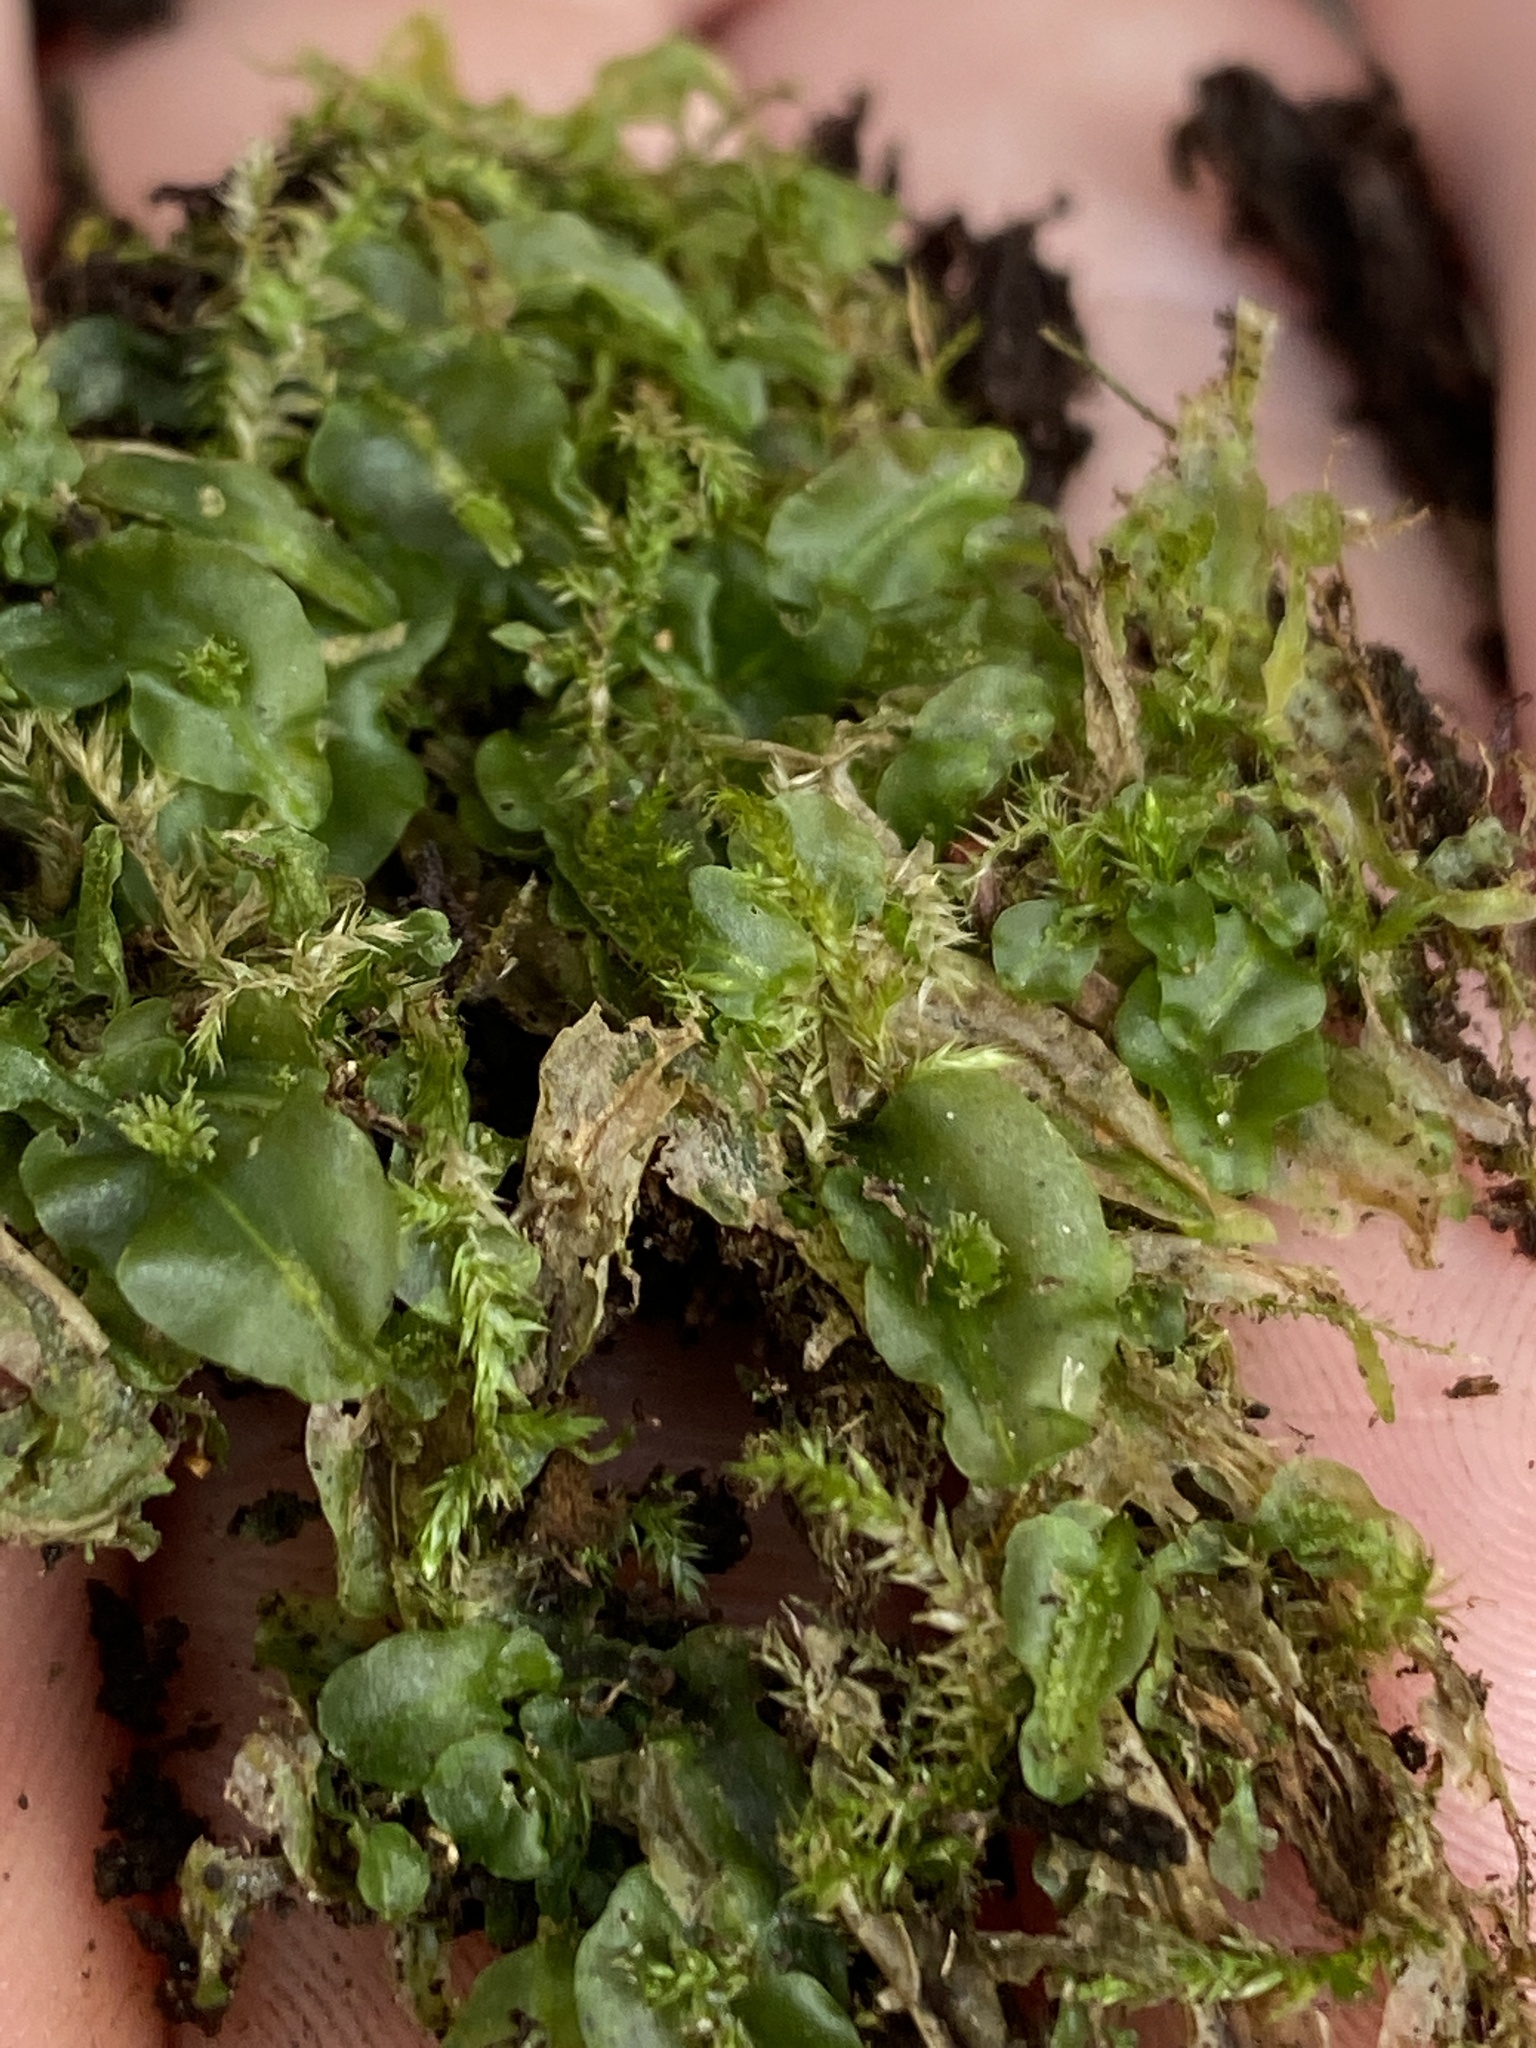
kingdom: Plantae
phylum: Marchantiophyta
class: Jungermanniopsida
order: Pallaviciniales
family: Pallaviciniaceae
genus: Pallavicinia
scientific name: Pallavicinia lyellii
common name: Veilwort
